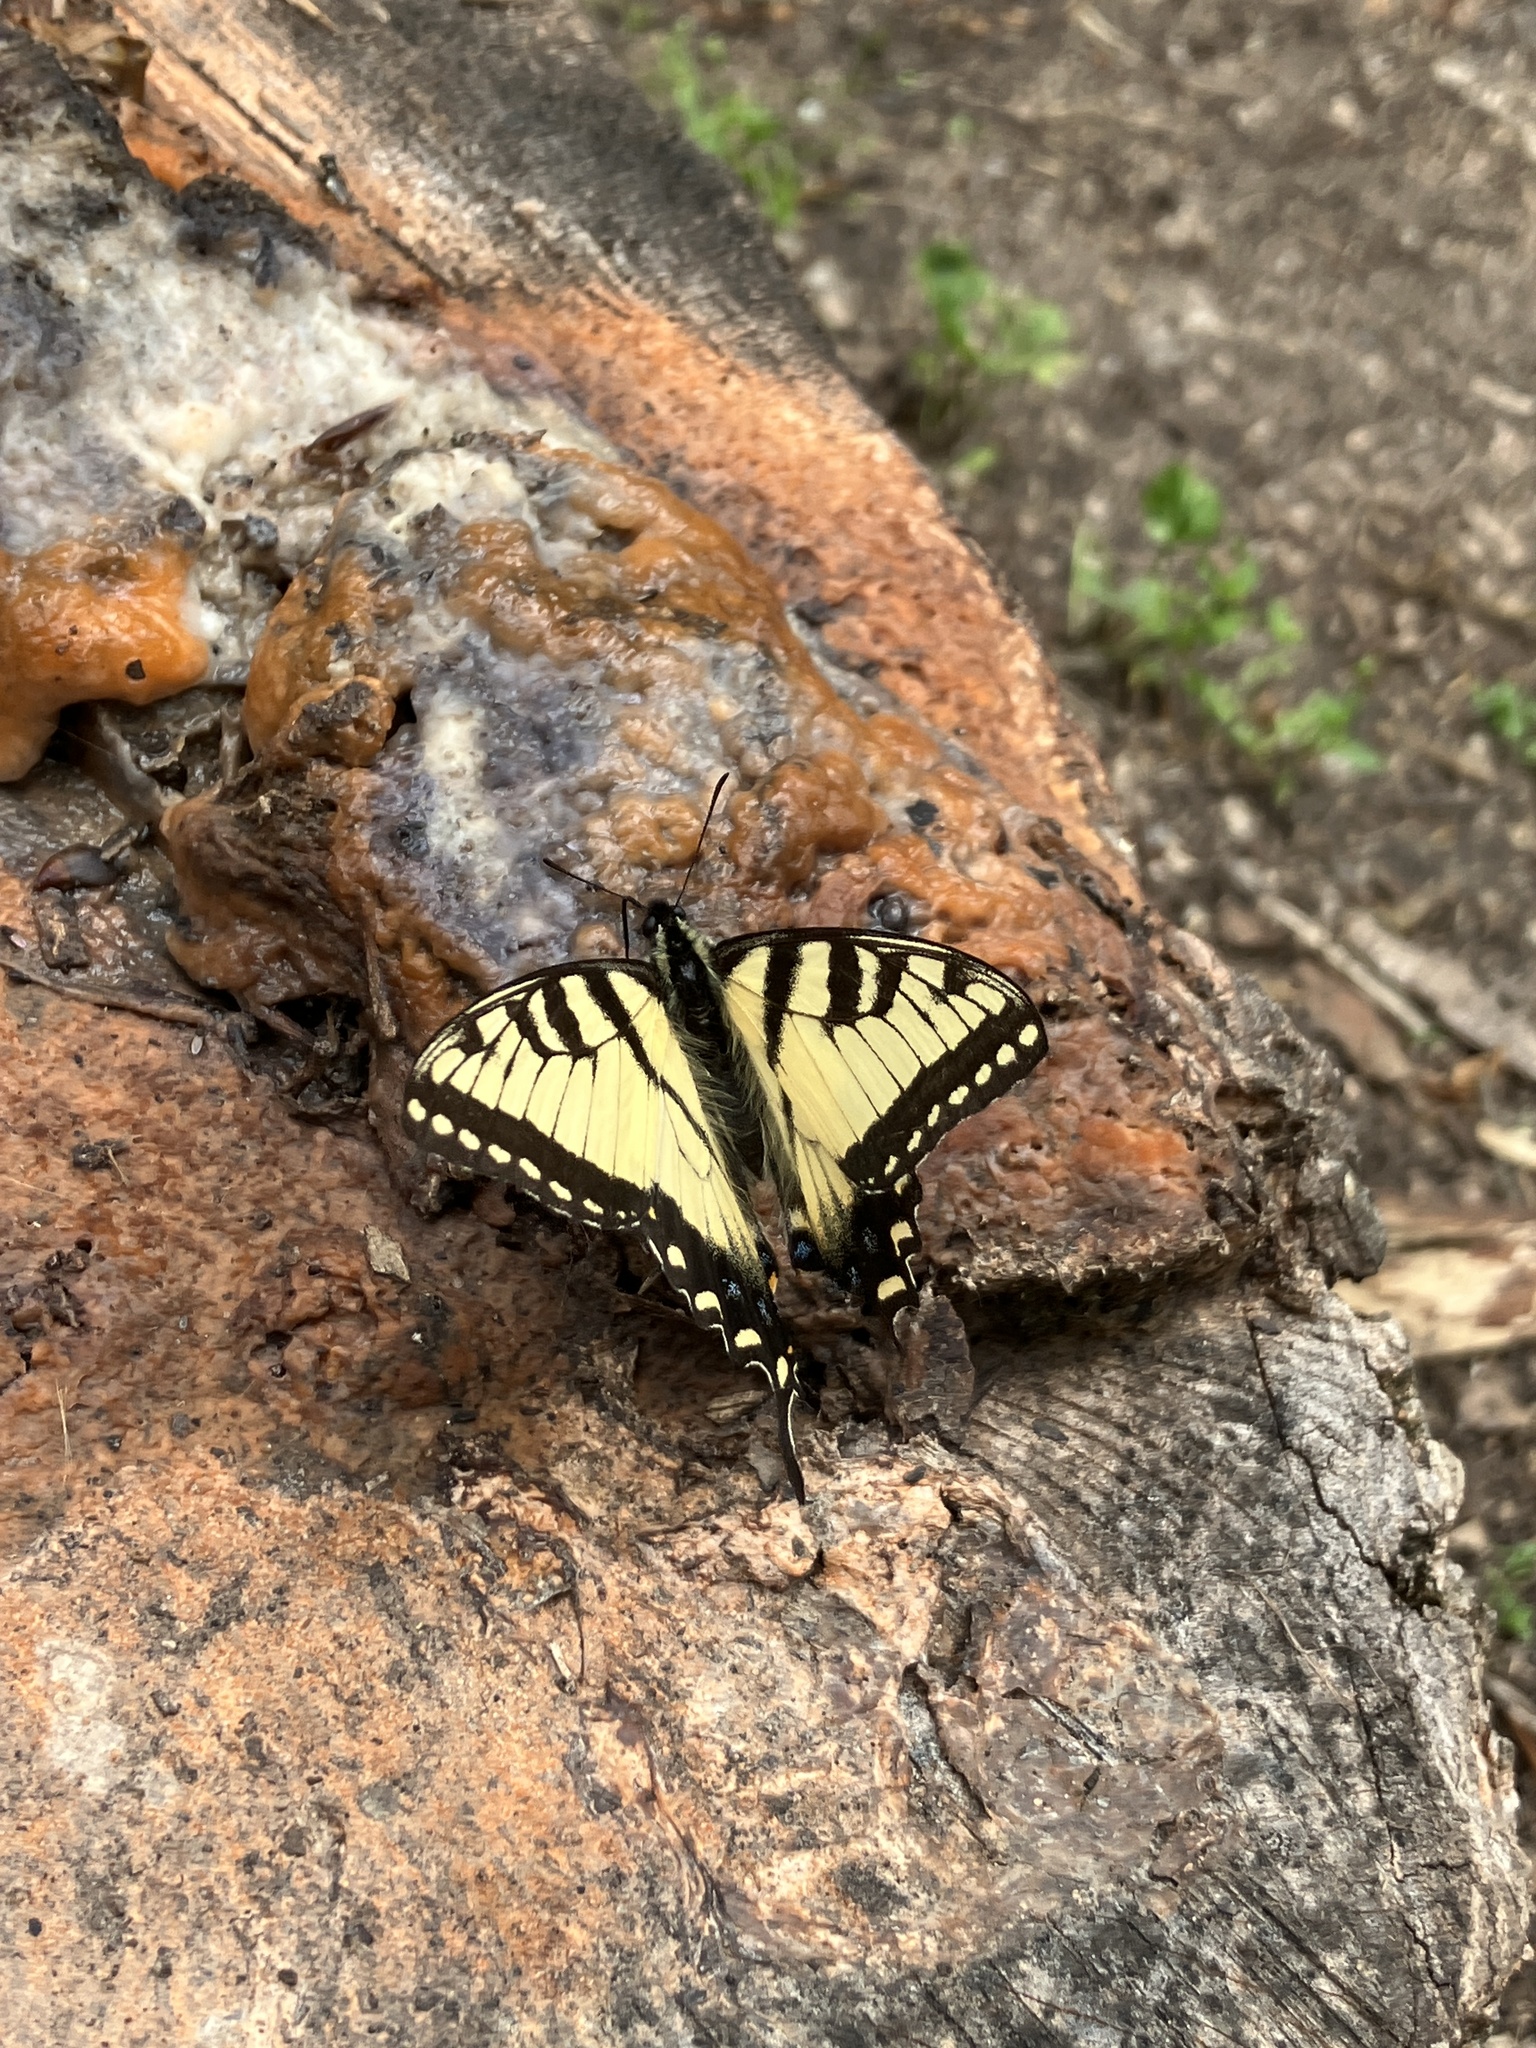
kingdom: Animalia
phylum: Arthropoda
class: Insecta
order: Lepidoptera
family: Papilionidae
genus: Papilio
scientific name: Papilio glaucus
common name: Tiger swallowtail
